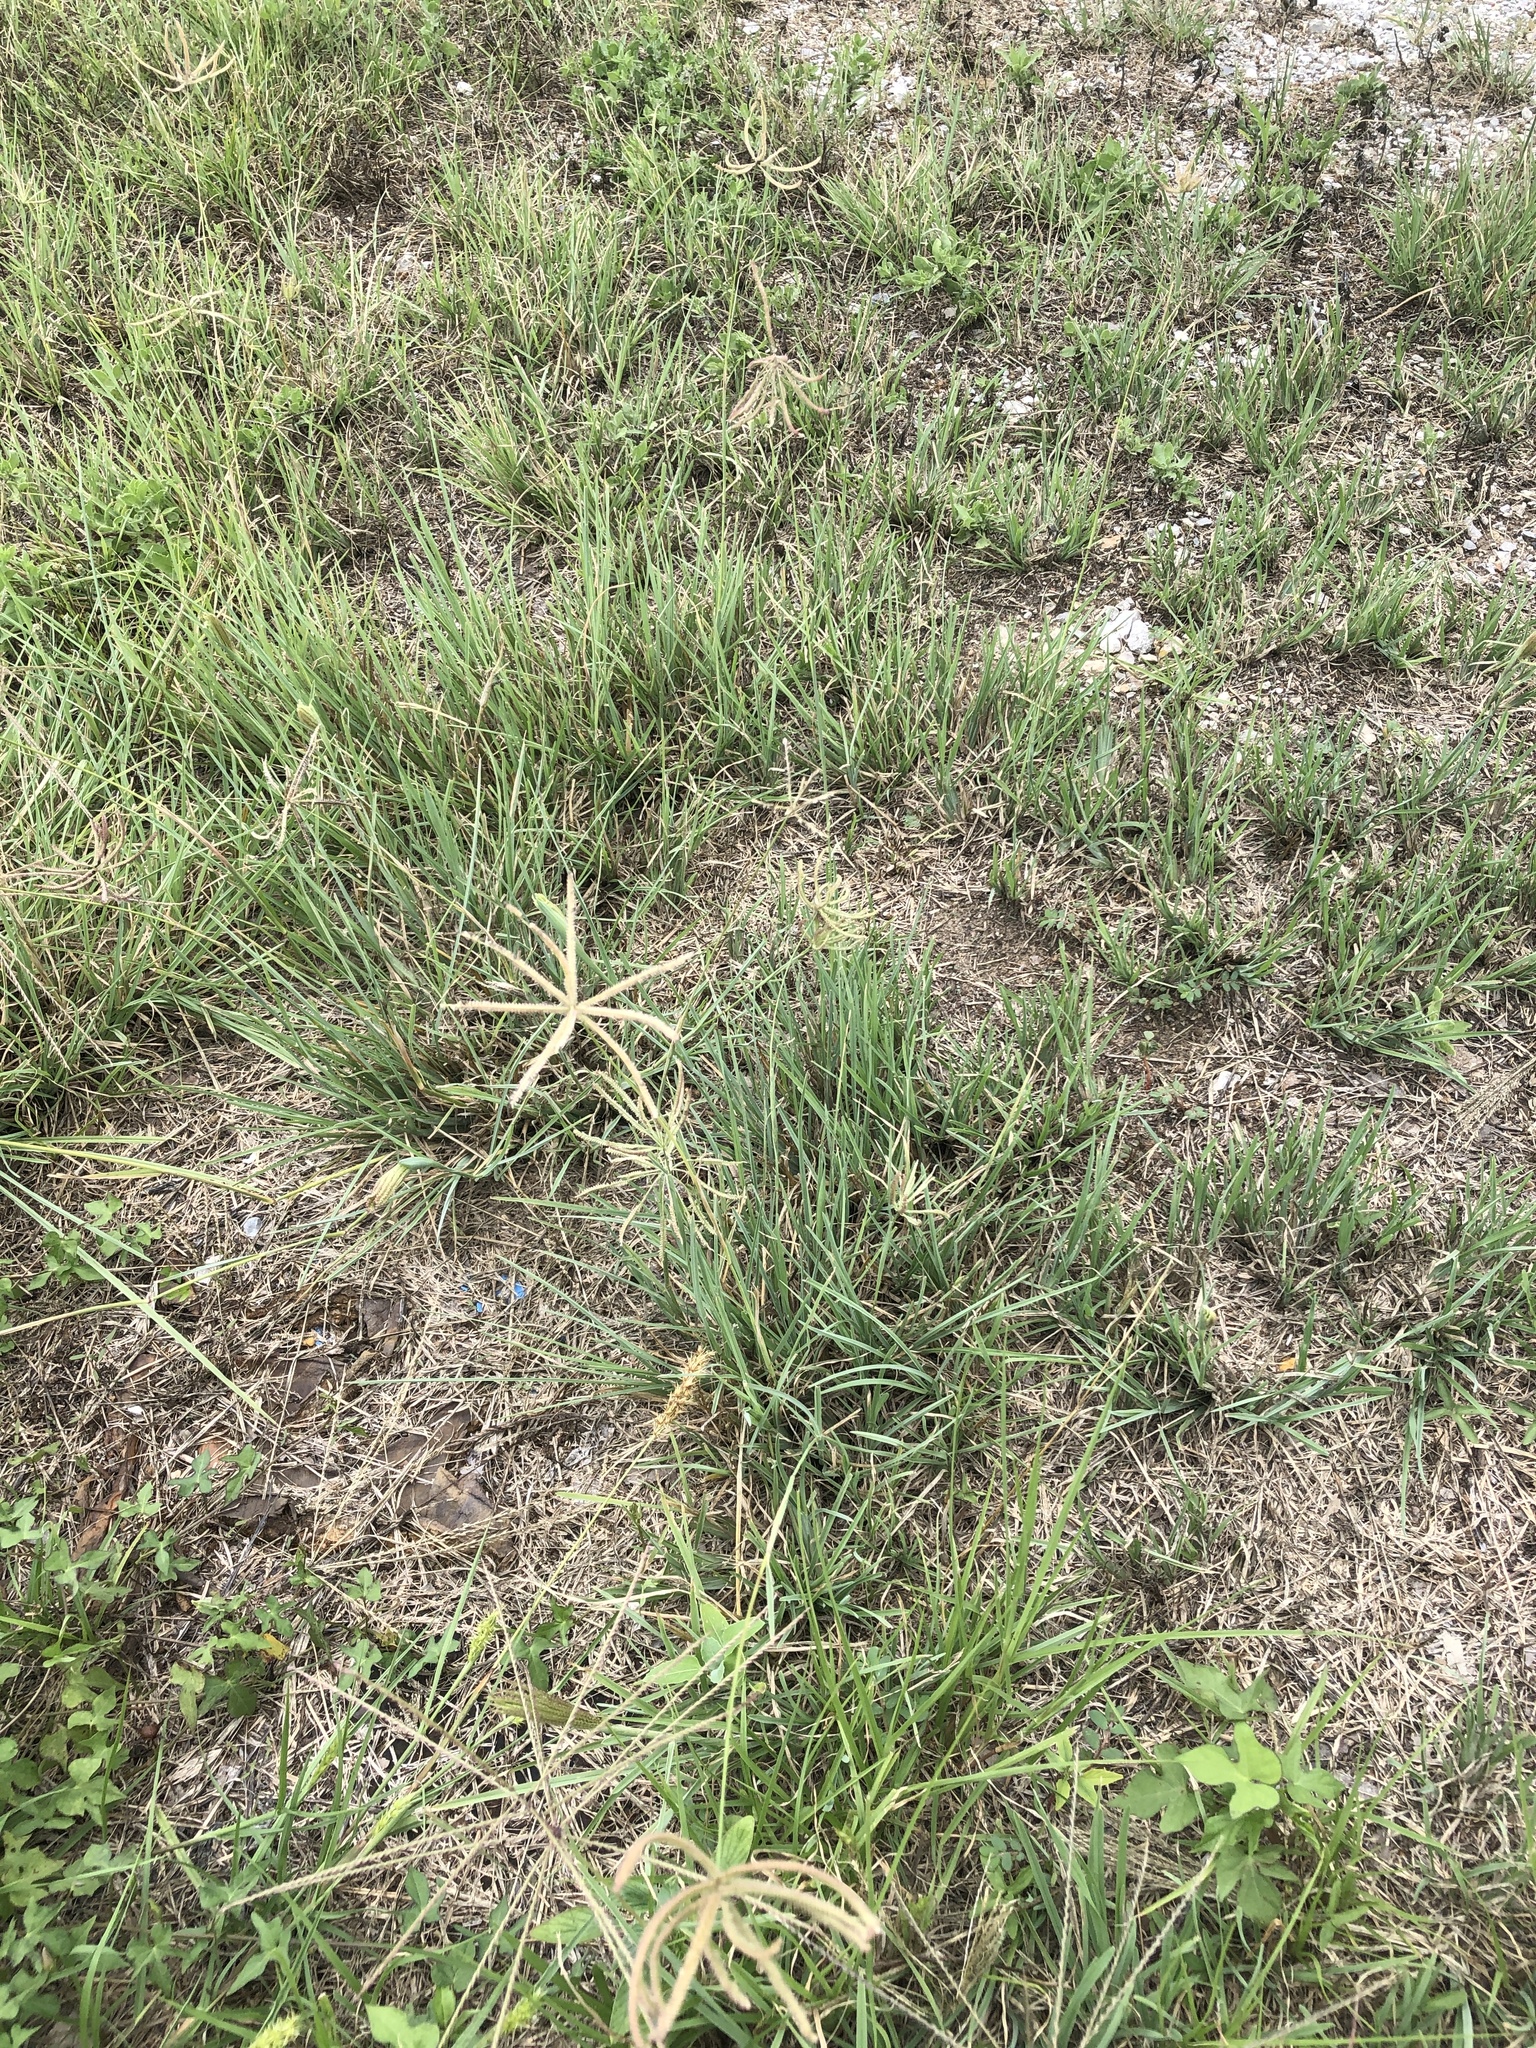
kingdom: Plantae
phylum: Tracheophyta
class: Liliopsida
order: Poales
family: Poaceae
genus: Chloris
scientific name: Chloris cucullata
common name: Hooded windmill grass
